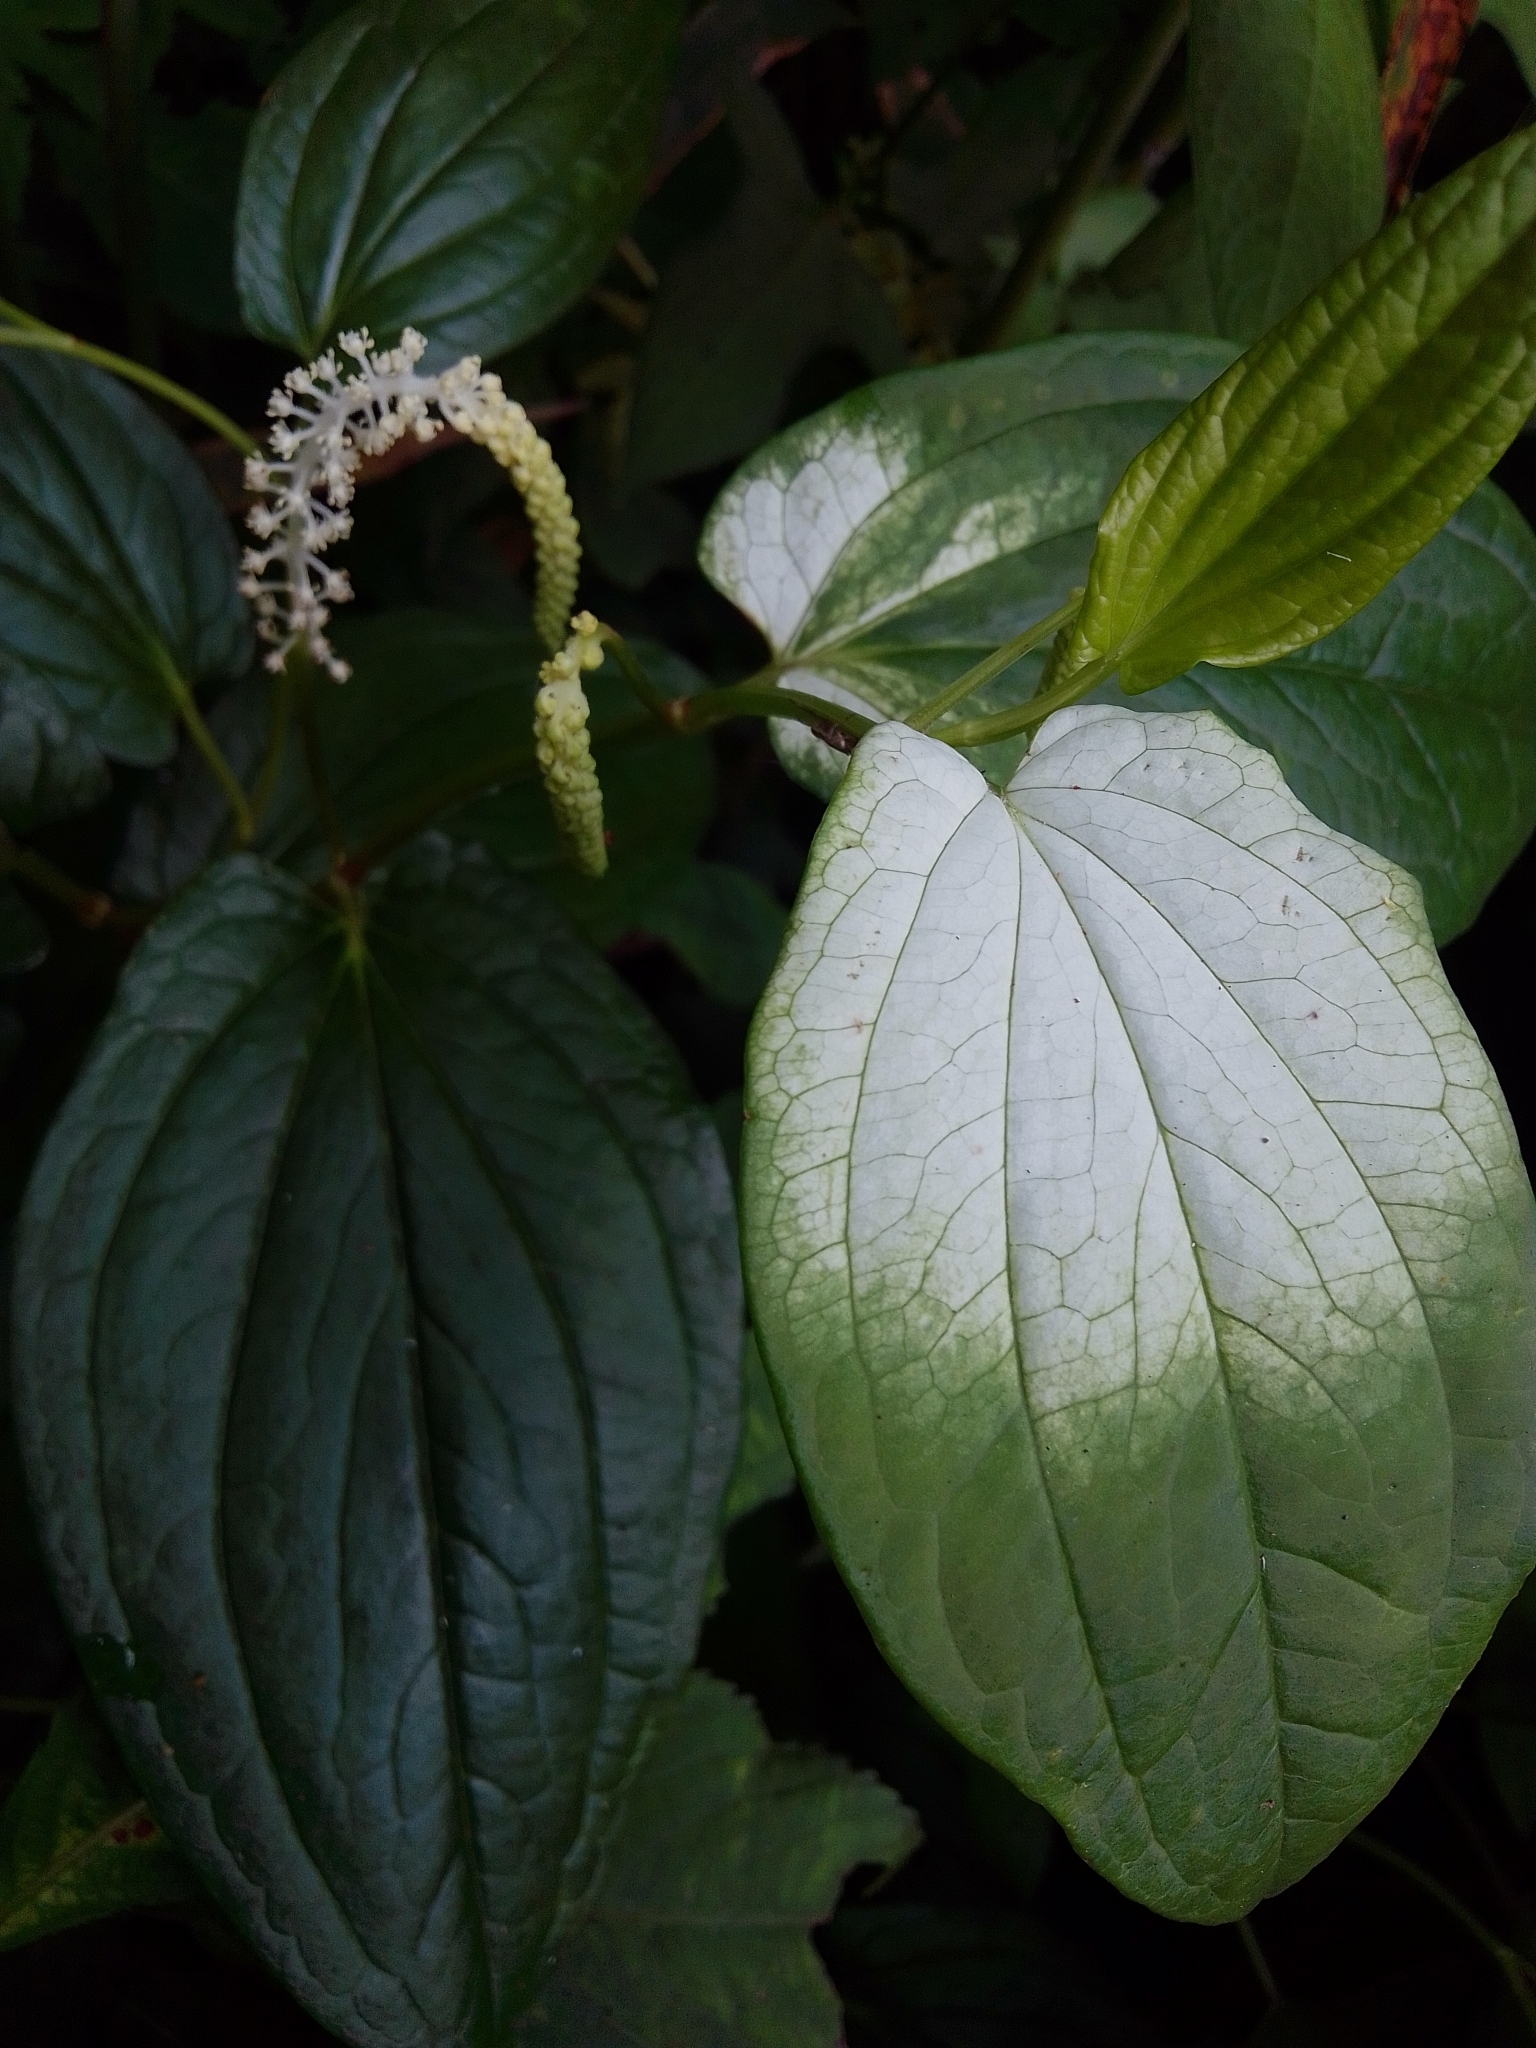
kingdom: Plantae
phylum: Tracheophyta
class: Magnoliopsida
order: Piperales
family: Saururaceae
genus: Saururus
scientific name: Saururus chinensis
